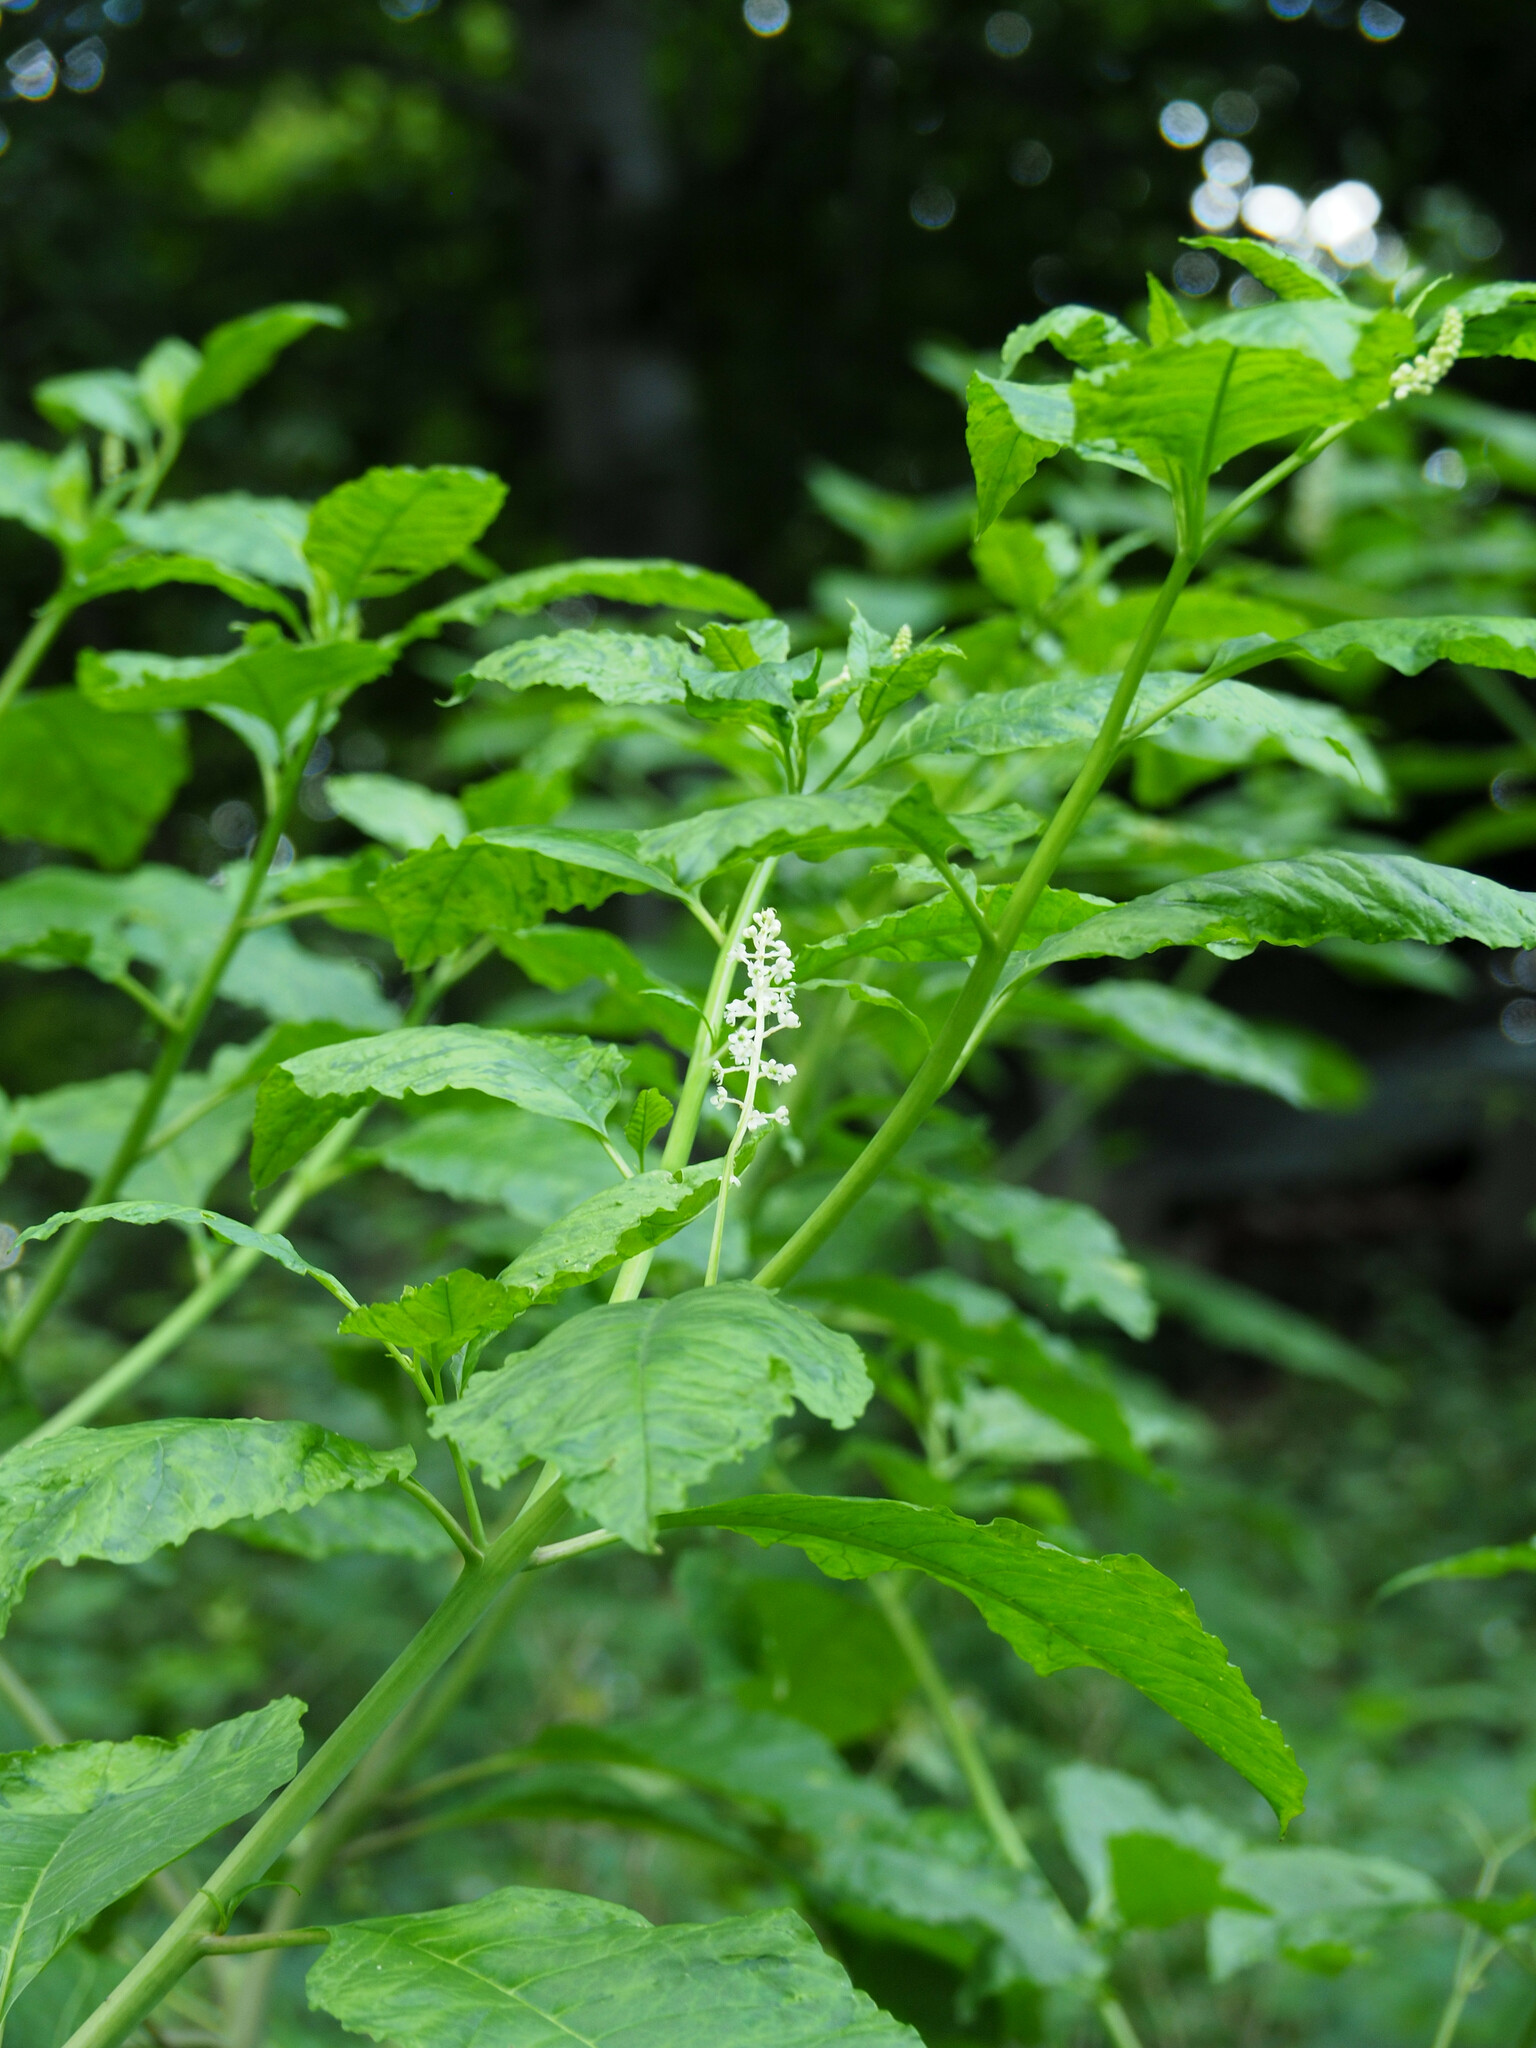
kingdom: Plantae
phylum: Tracheophyta
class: Magnoliopsida
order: Caryophyllales
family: Phytolaccaceae
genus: Phytolacca
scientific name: Phytolacca americana
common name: American pokeweed
